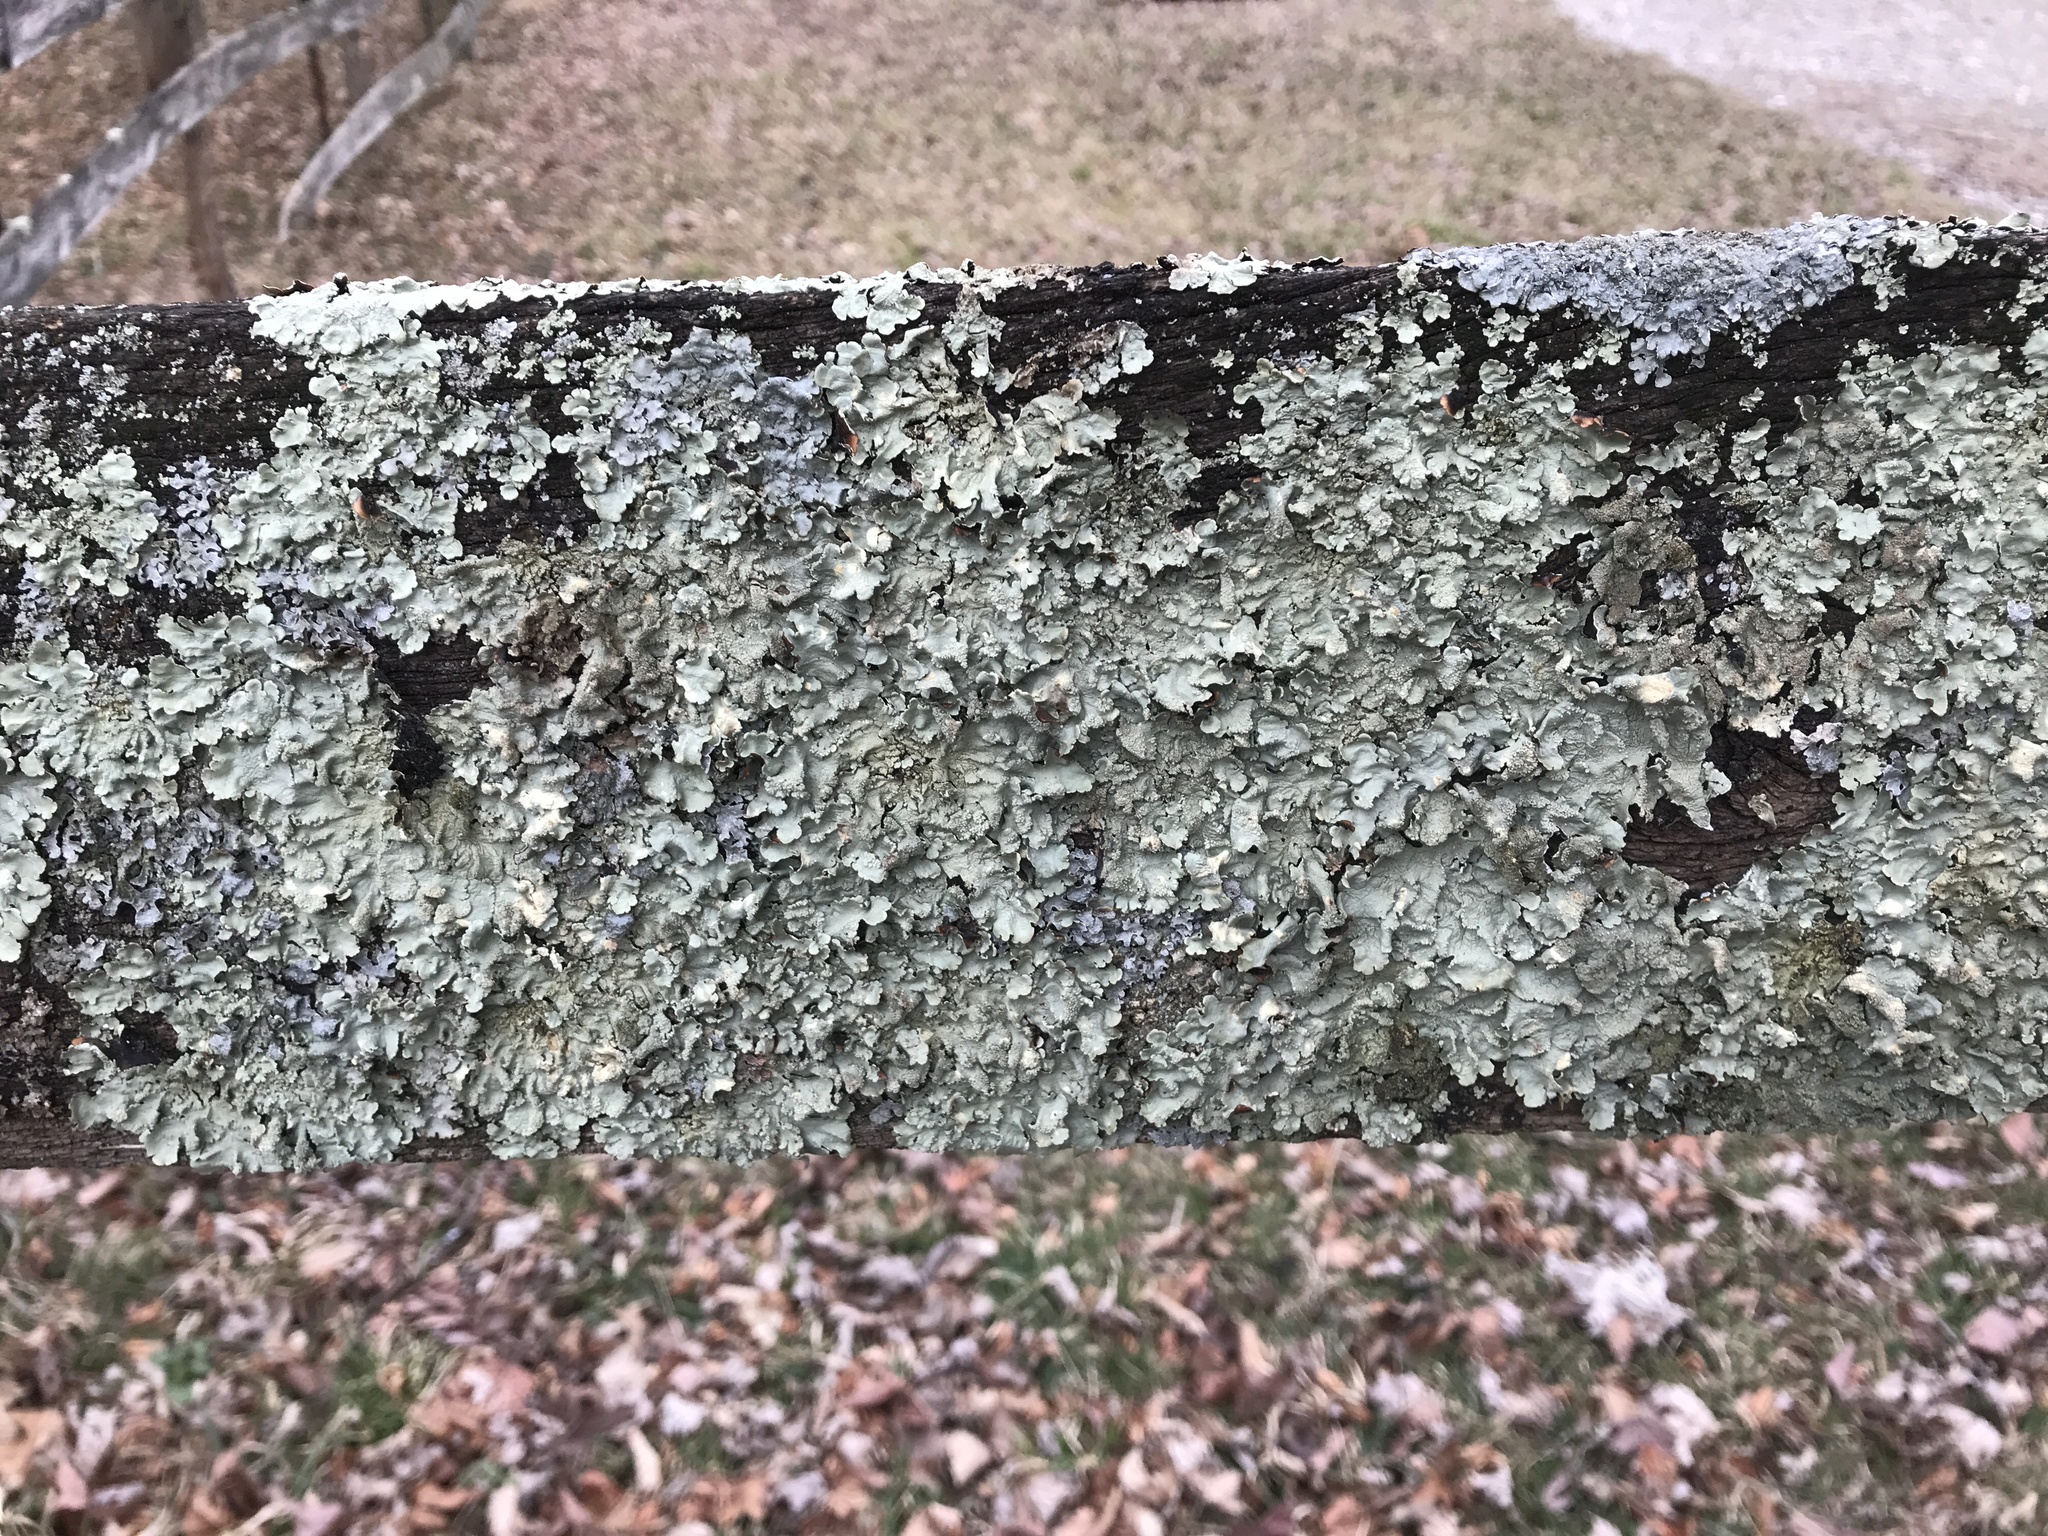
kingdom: Fungi
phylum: Ascomycota
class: Lecanoromycetes
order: Lecanorales
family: Parmeliaceae
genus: Flavoparmelia
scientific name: Flavoparmelia caperata
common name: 40-mile per hour lichen
